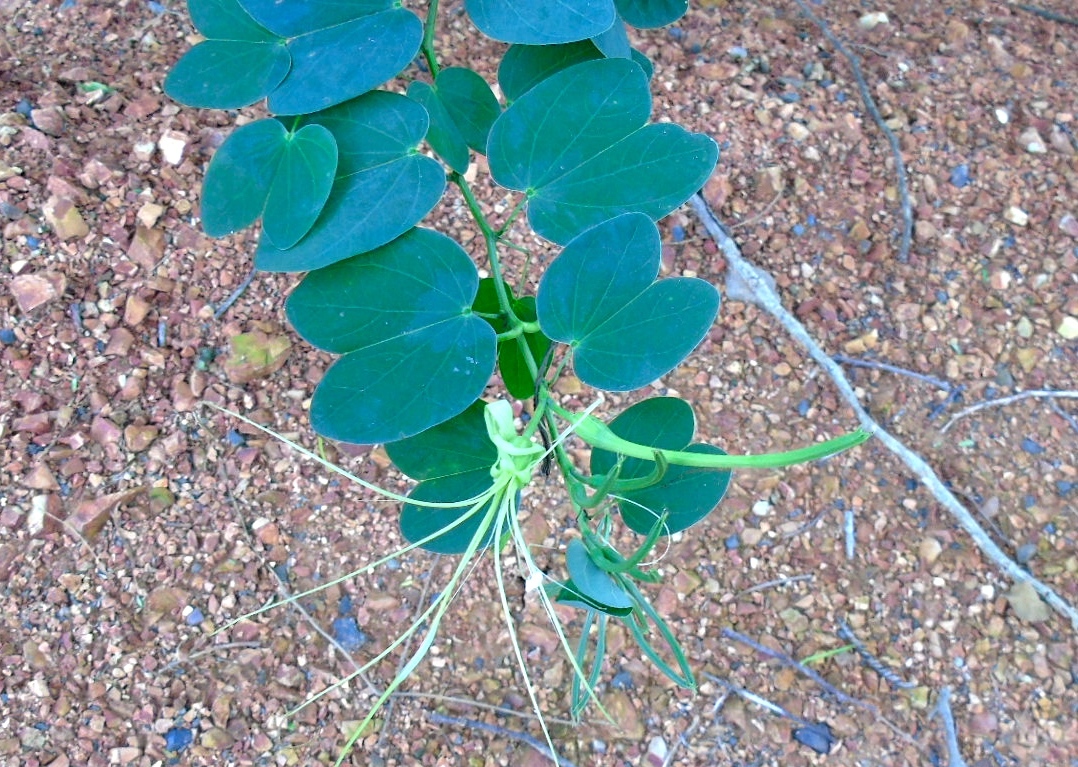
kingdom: Plantae
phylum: Tracheophyta
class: Magnoliopsida
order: Fabales
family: Fabaceae
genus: Bauhinia
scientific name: Bauhinia pauletia
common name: Railway-fence bauhinia
